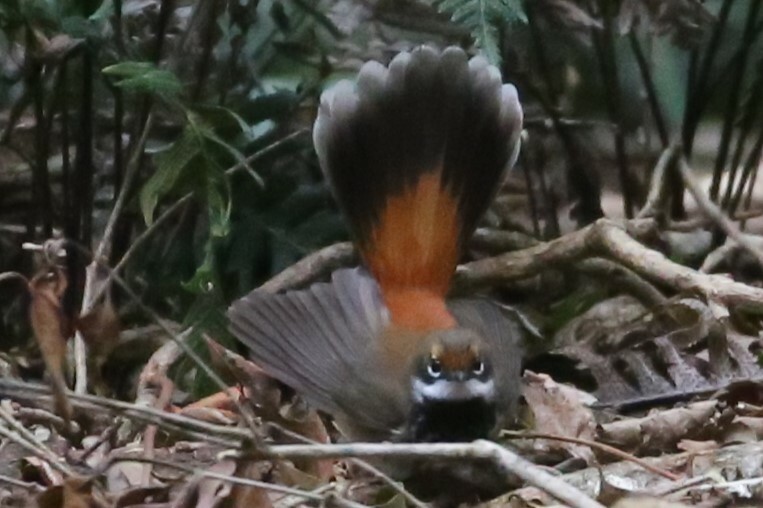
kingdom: Animalia
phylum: Chordata
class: Aves
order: Passeriformes
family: Rhipiduridae
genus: Rhipidura
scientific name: Rhipidura rufifrons
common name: Rufous fantail
